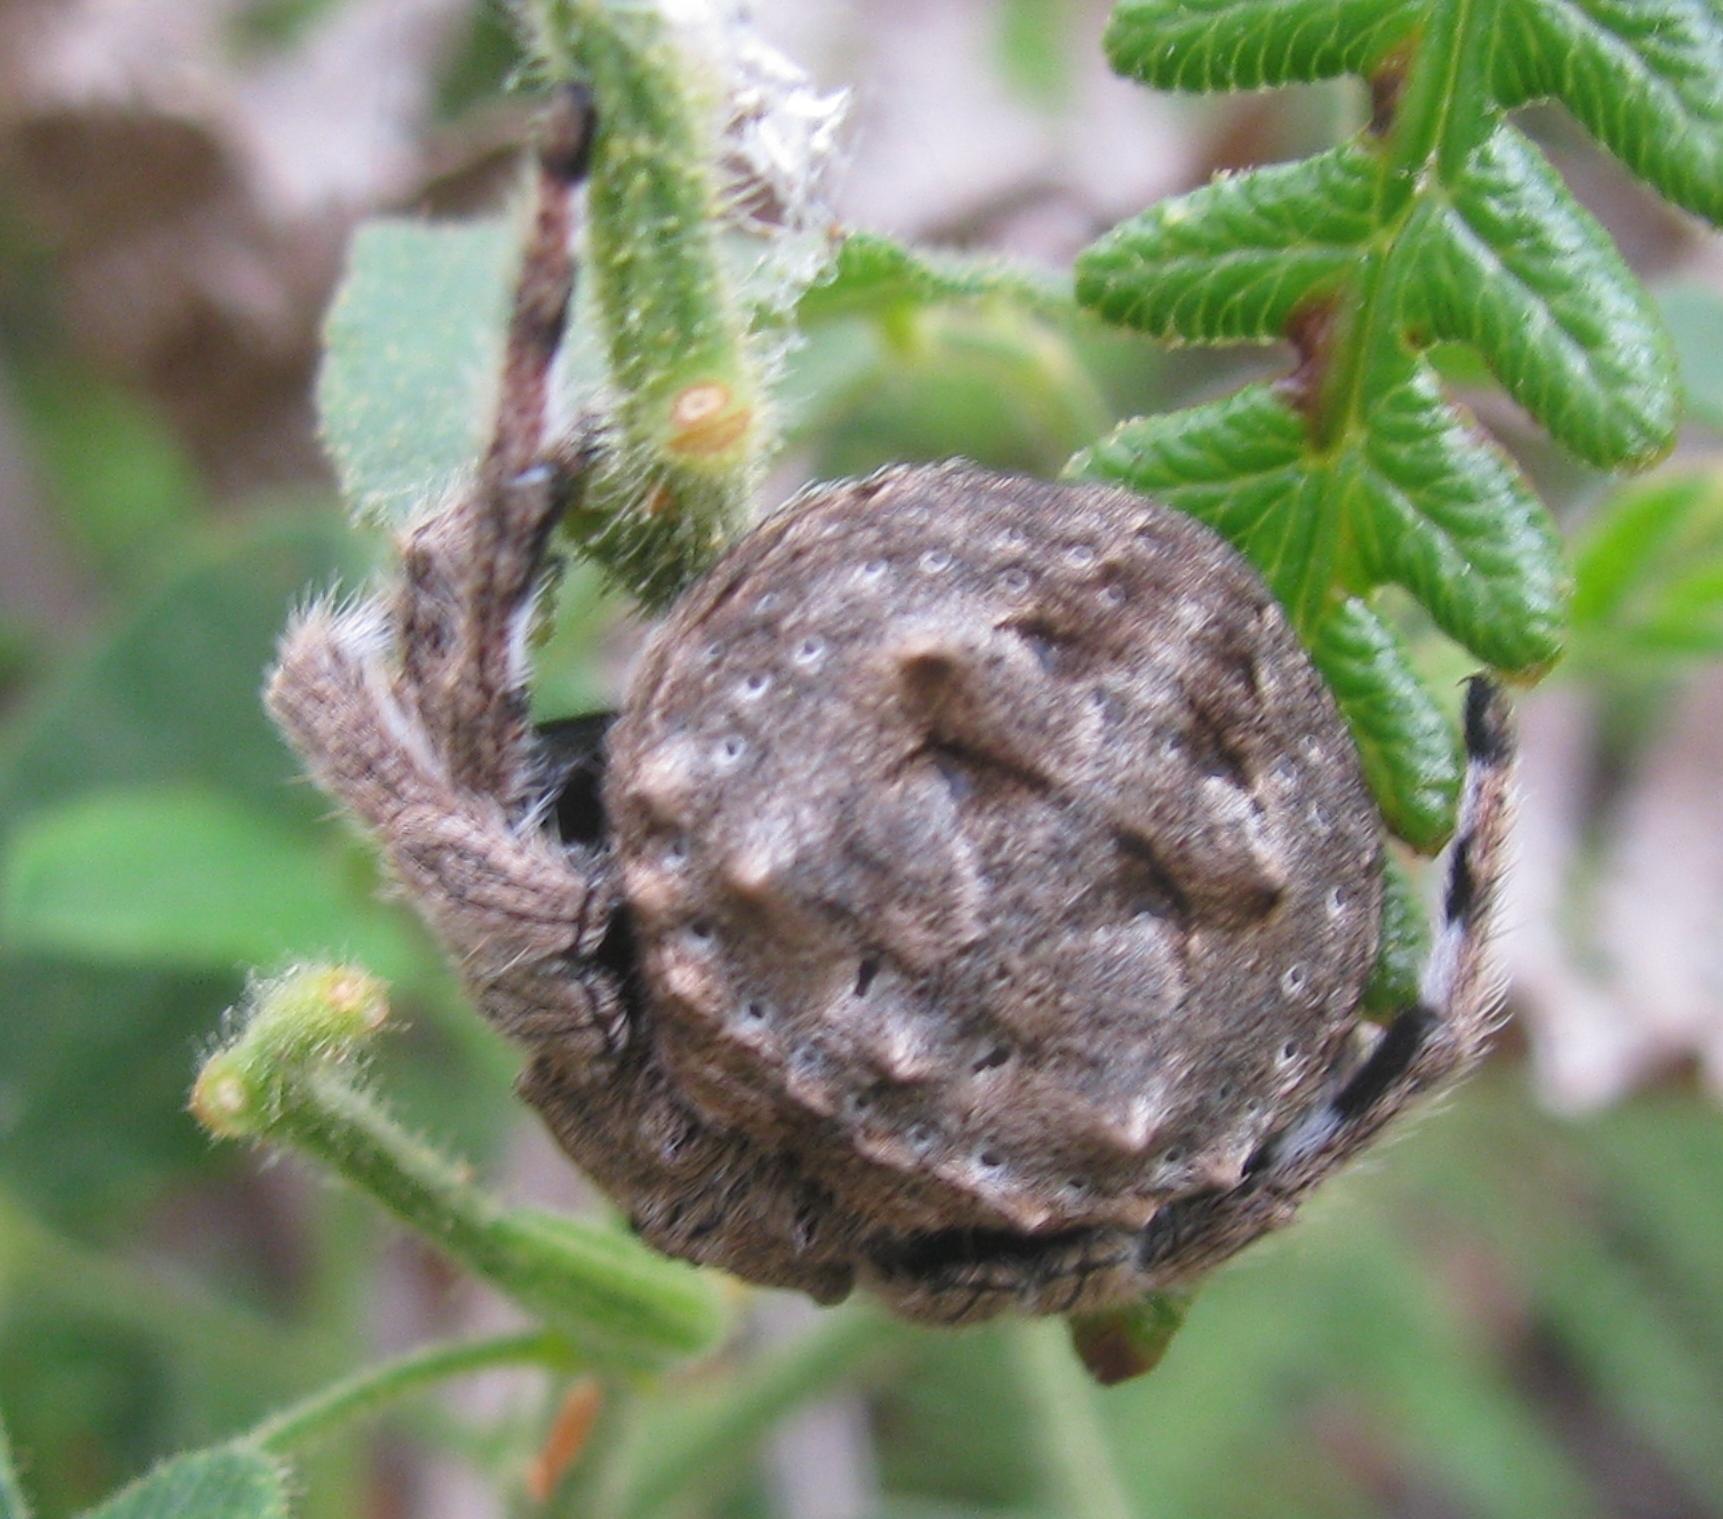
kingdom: Animalia
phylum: Arthropoda
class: Arachnida
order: Araneae
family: Araneidae
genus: Caerostris
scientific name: Caerostris sexcuspidata
